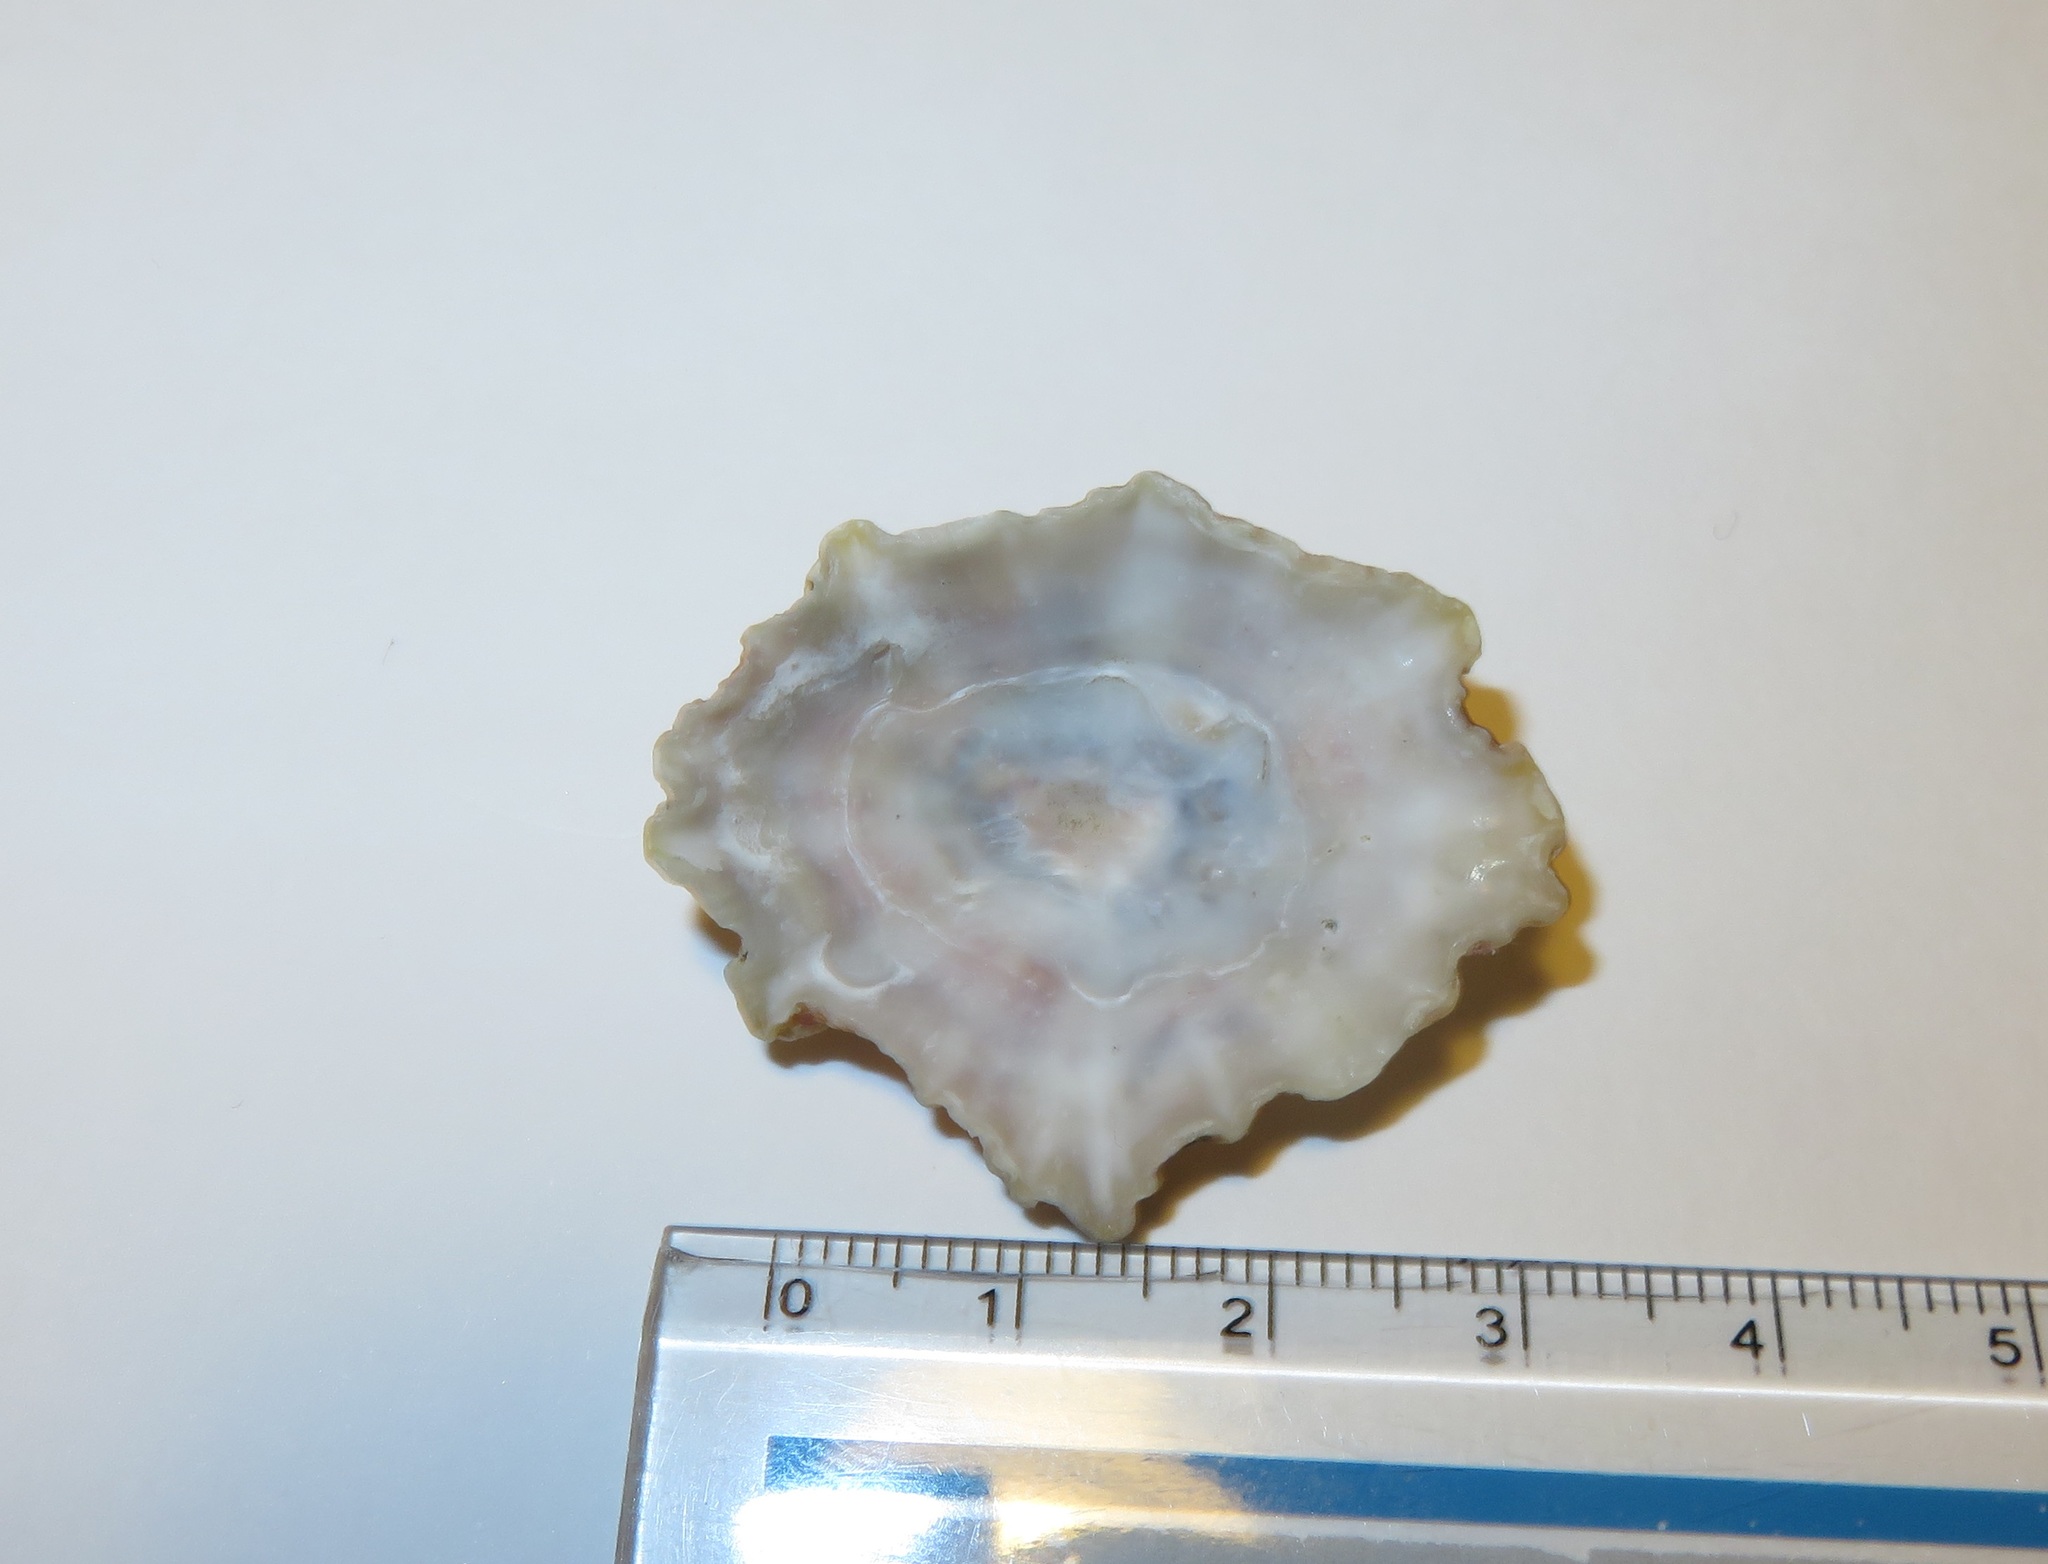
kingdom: Animalia
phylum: Mollusca
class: Gastropoda
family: Patellidae
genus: Scutellastra
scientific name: Scutellastra flexuosa
